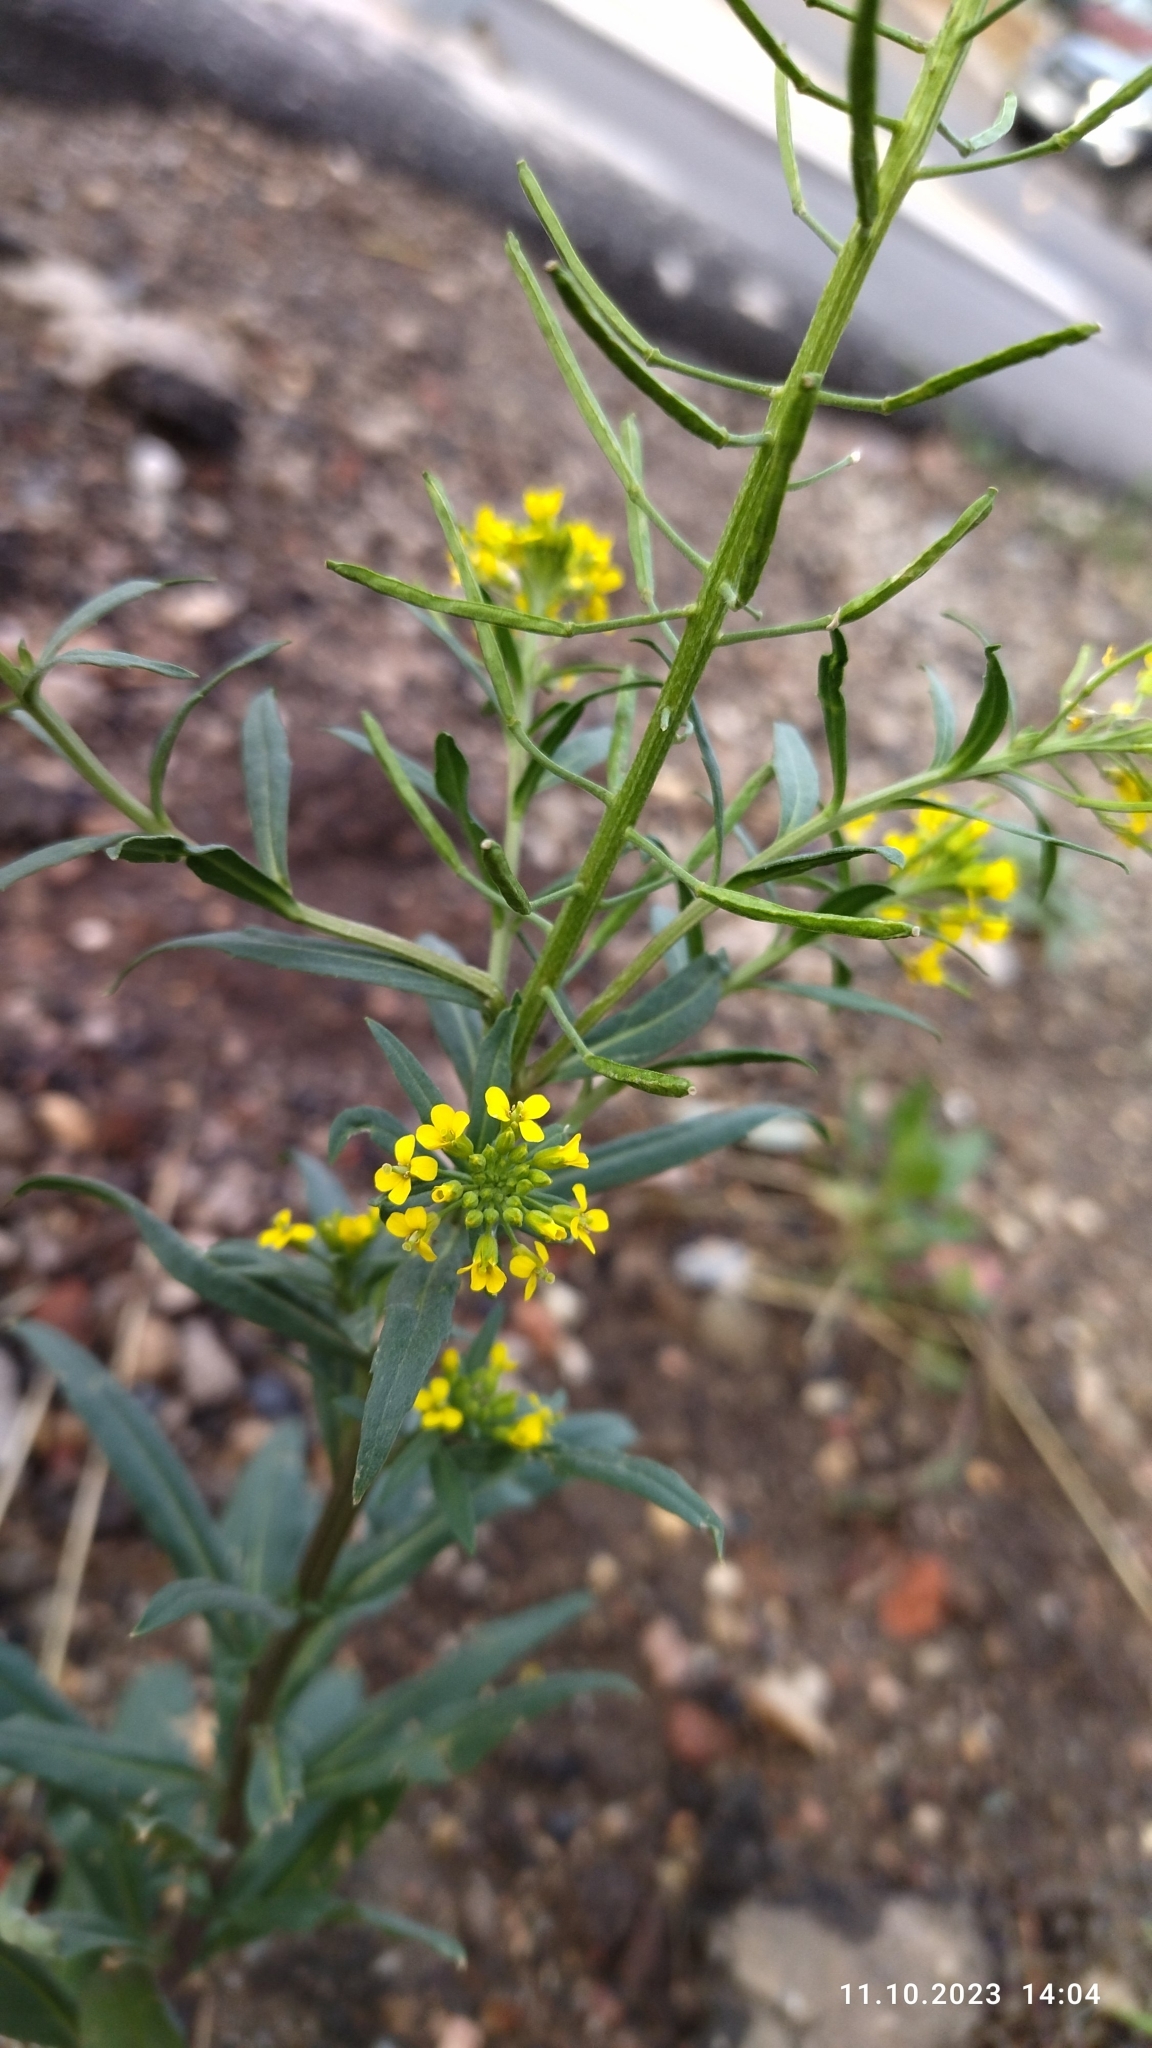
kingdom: Plantae
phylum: Tracheophyta
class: Magnoliopsida
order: Brassicales
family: Brassicaceae
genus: Erysimum
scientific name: Erysimum cheiranthoides
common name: Treacle mustard
